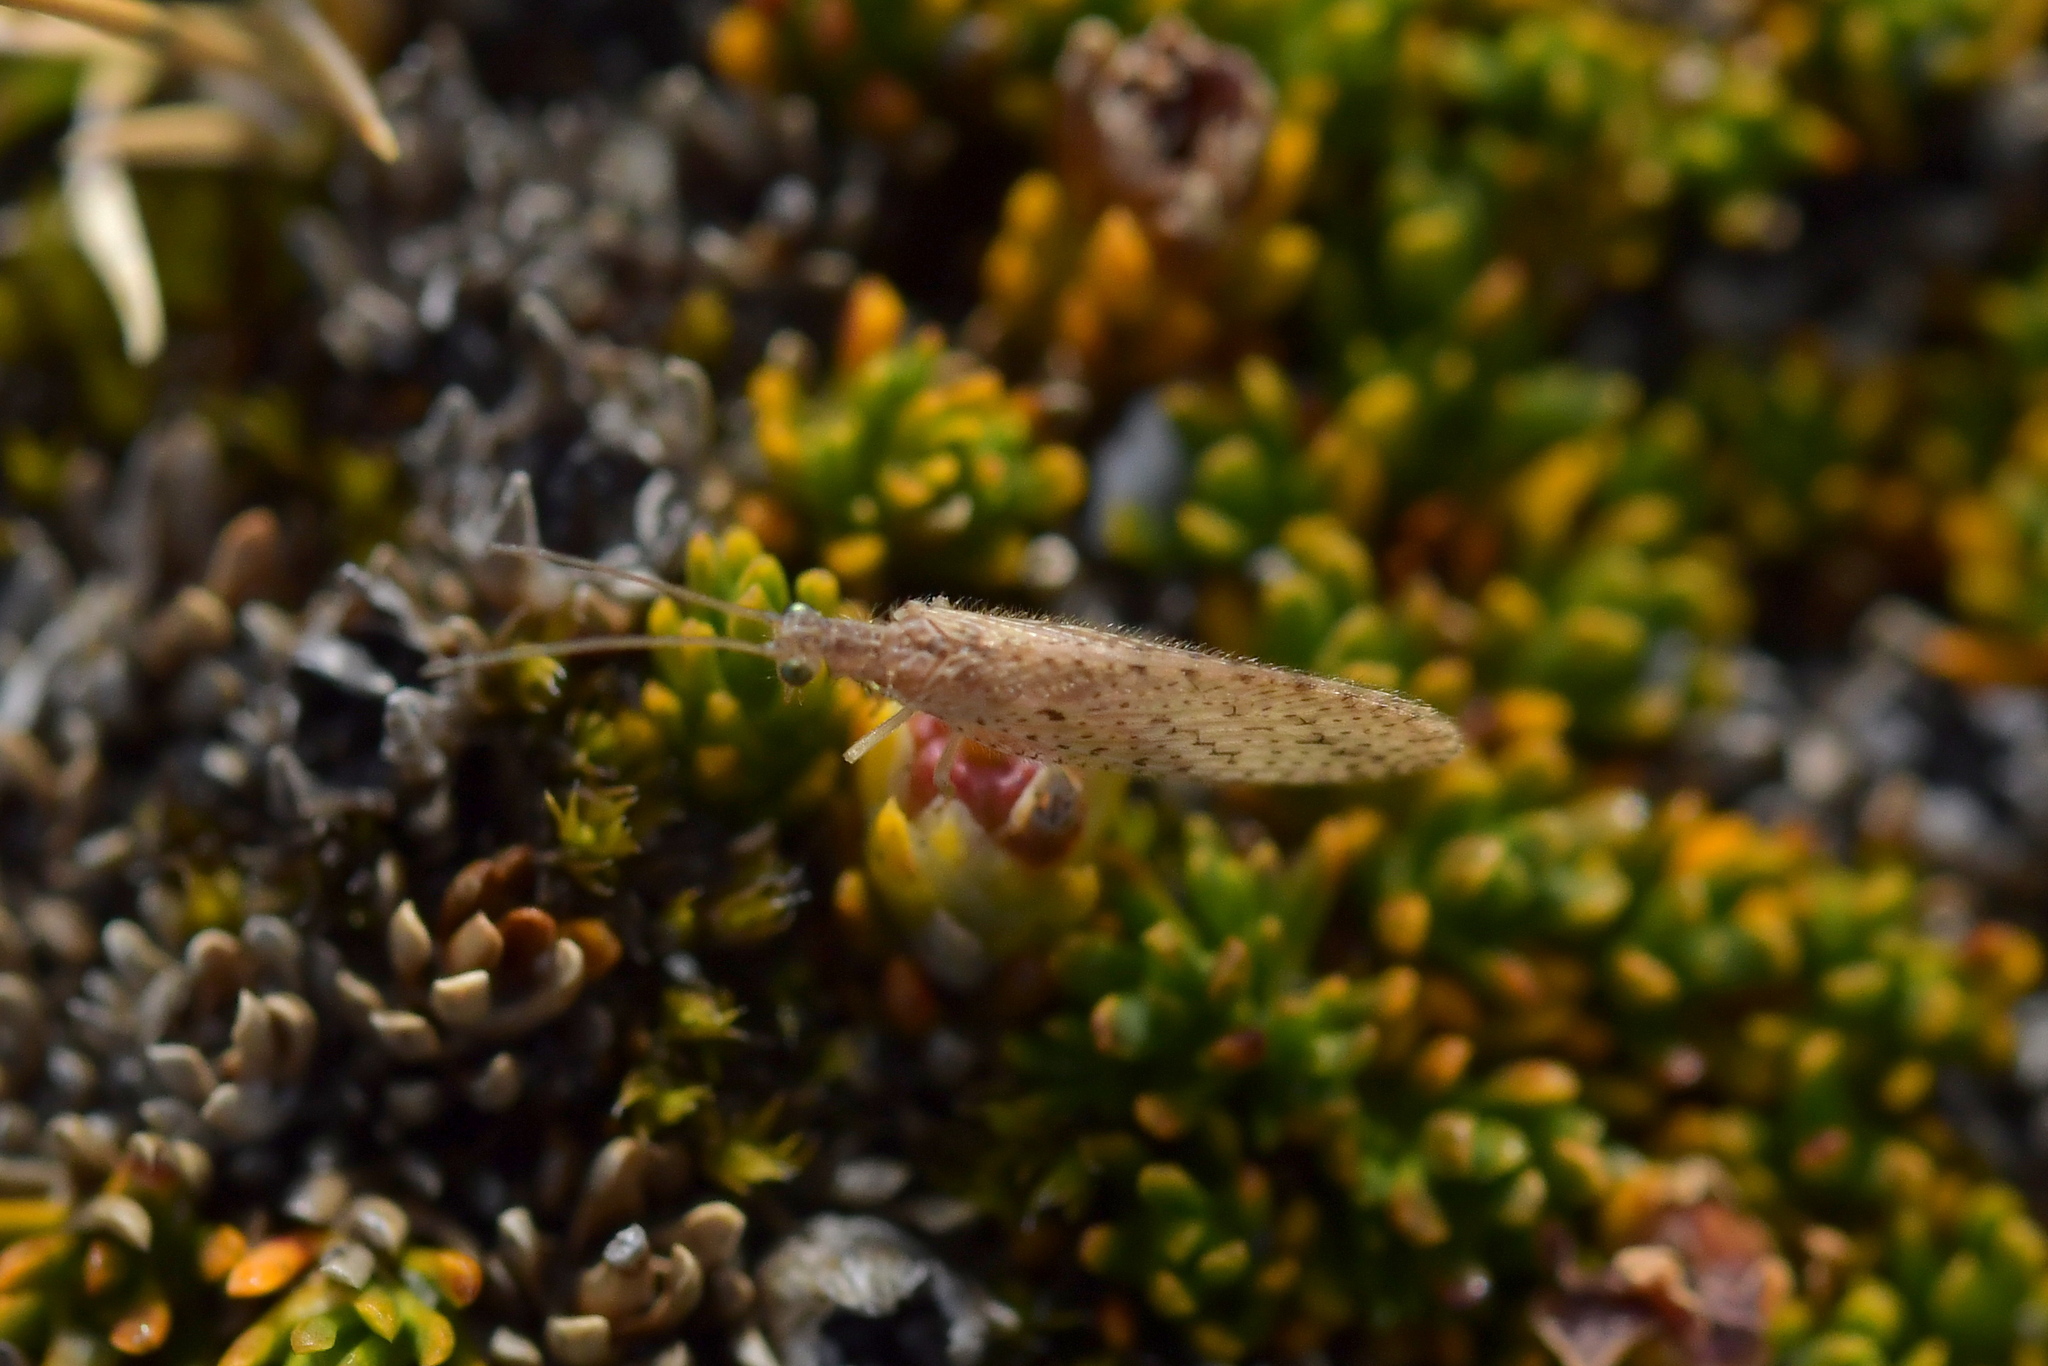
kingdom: Animalia
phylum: Arthropoda
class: Insecta
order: Neuroptera
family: Hemerobiidae
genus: Micromus
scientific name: Micromus tasmaniae
